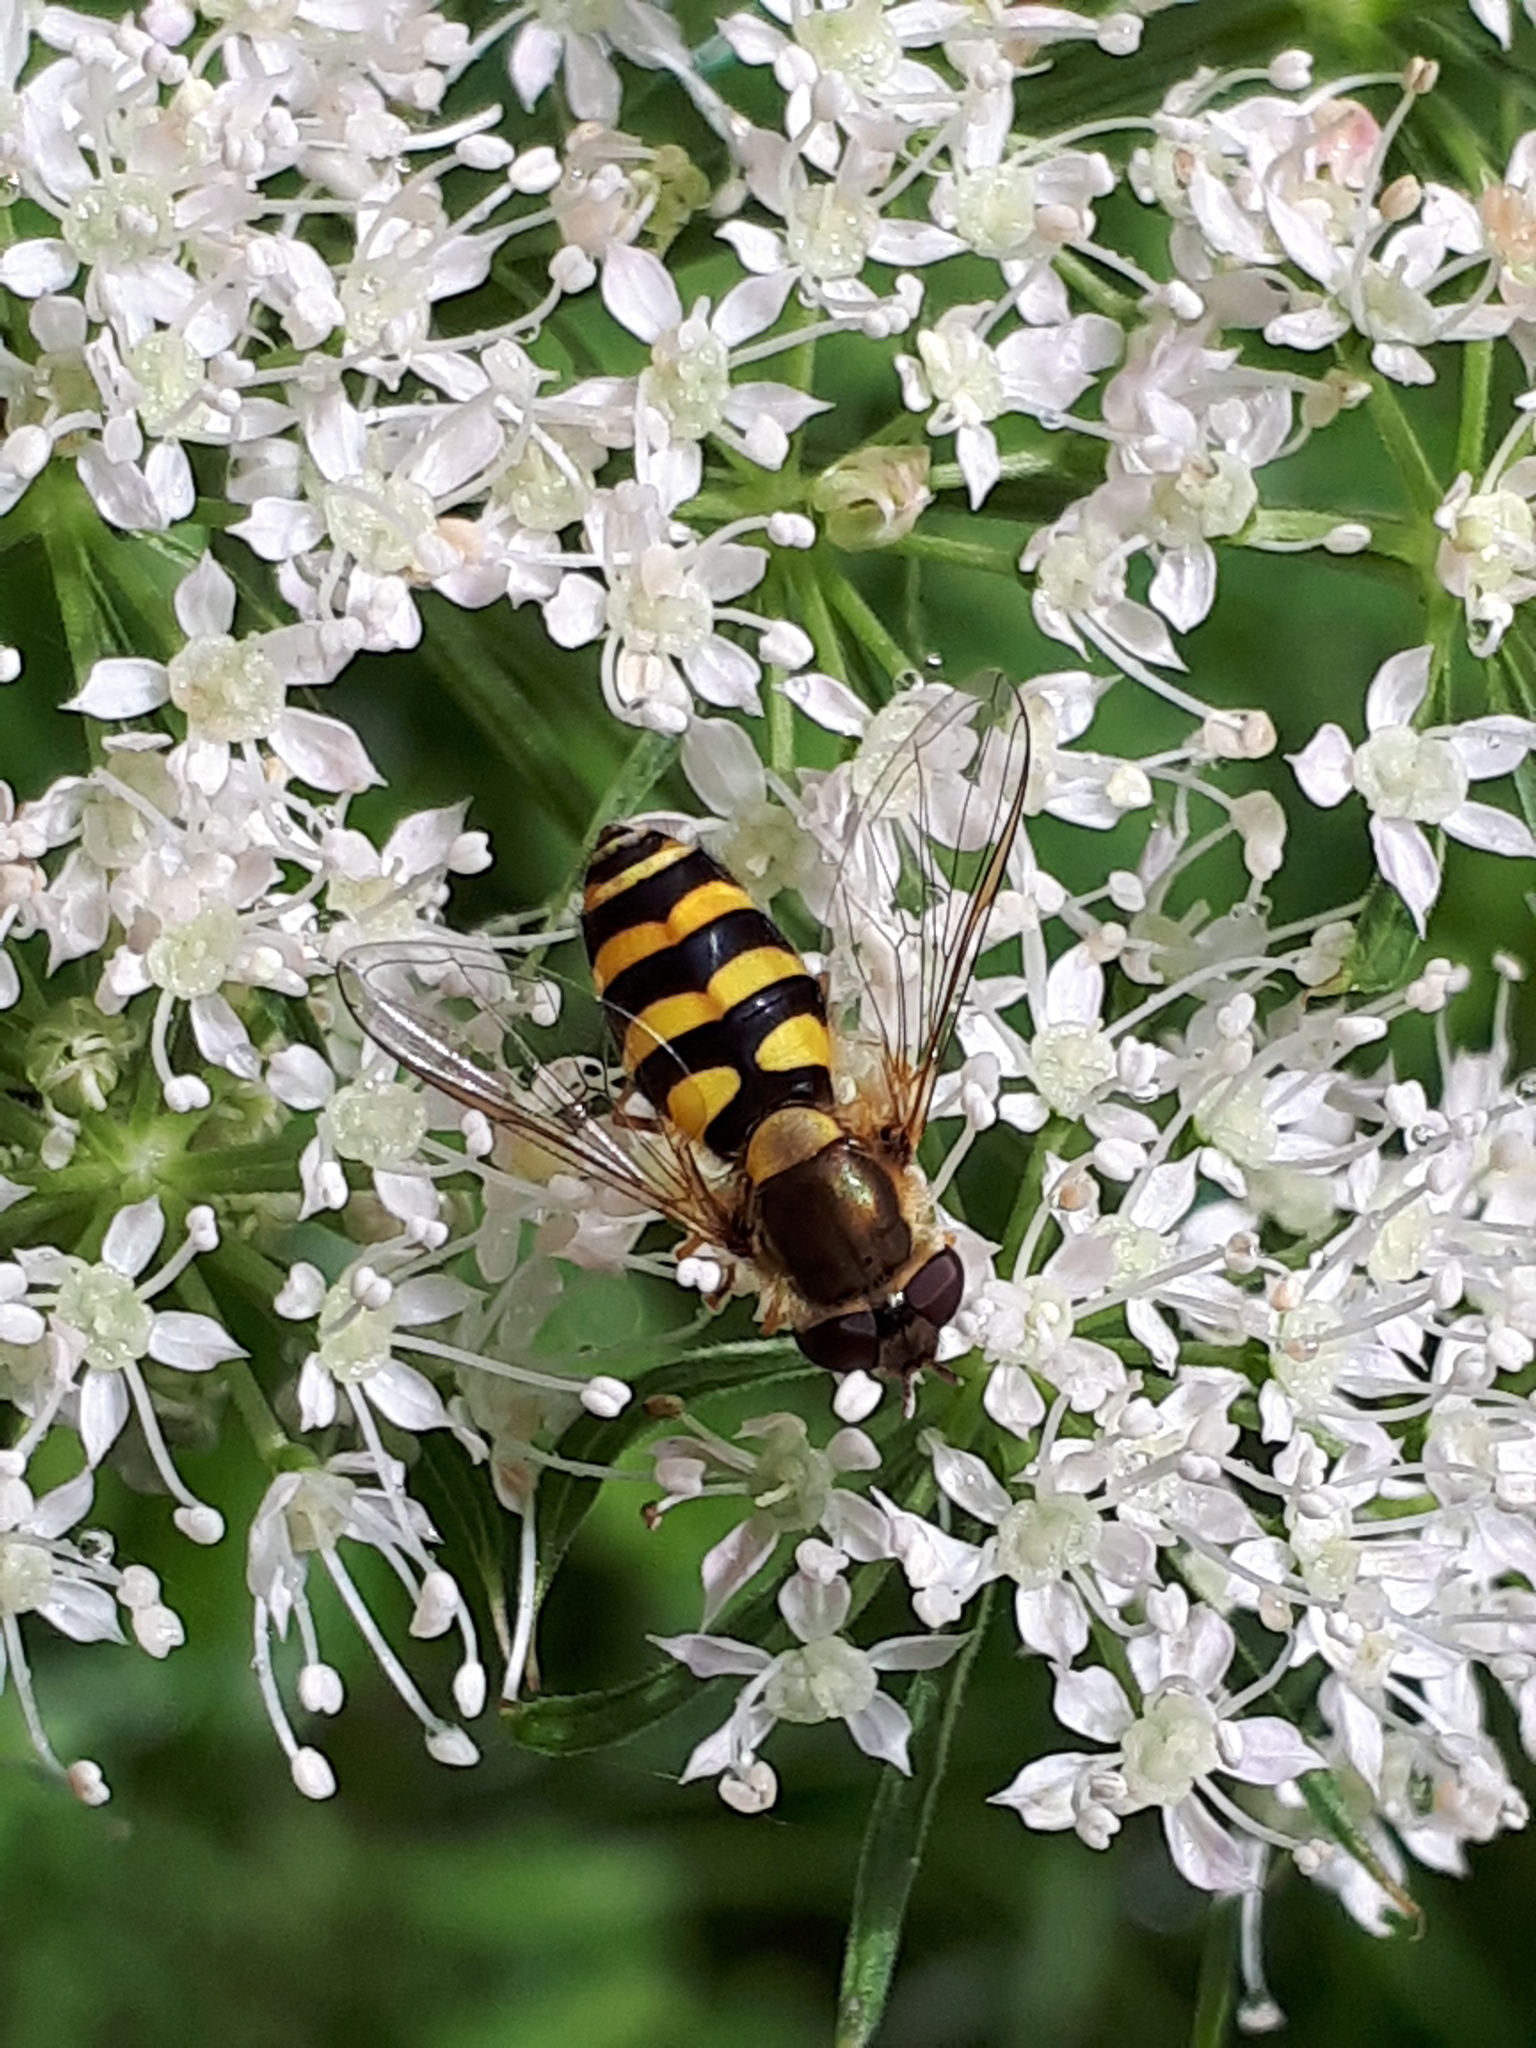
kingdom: Animalia
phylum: Arthropoda
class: Insecta
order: Diptera
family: Syrphidae
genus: Syrphus
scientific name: Syrphus
